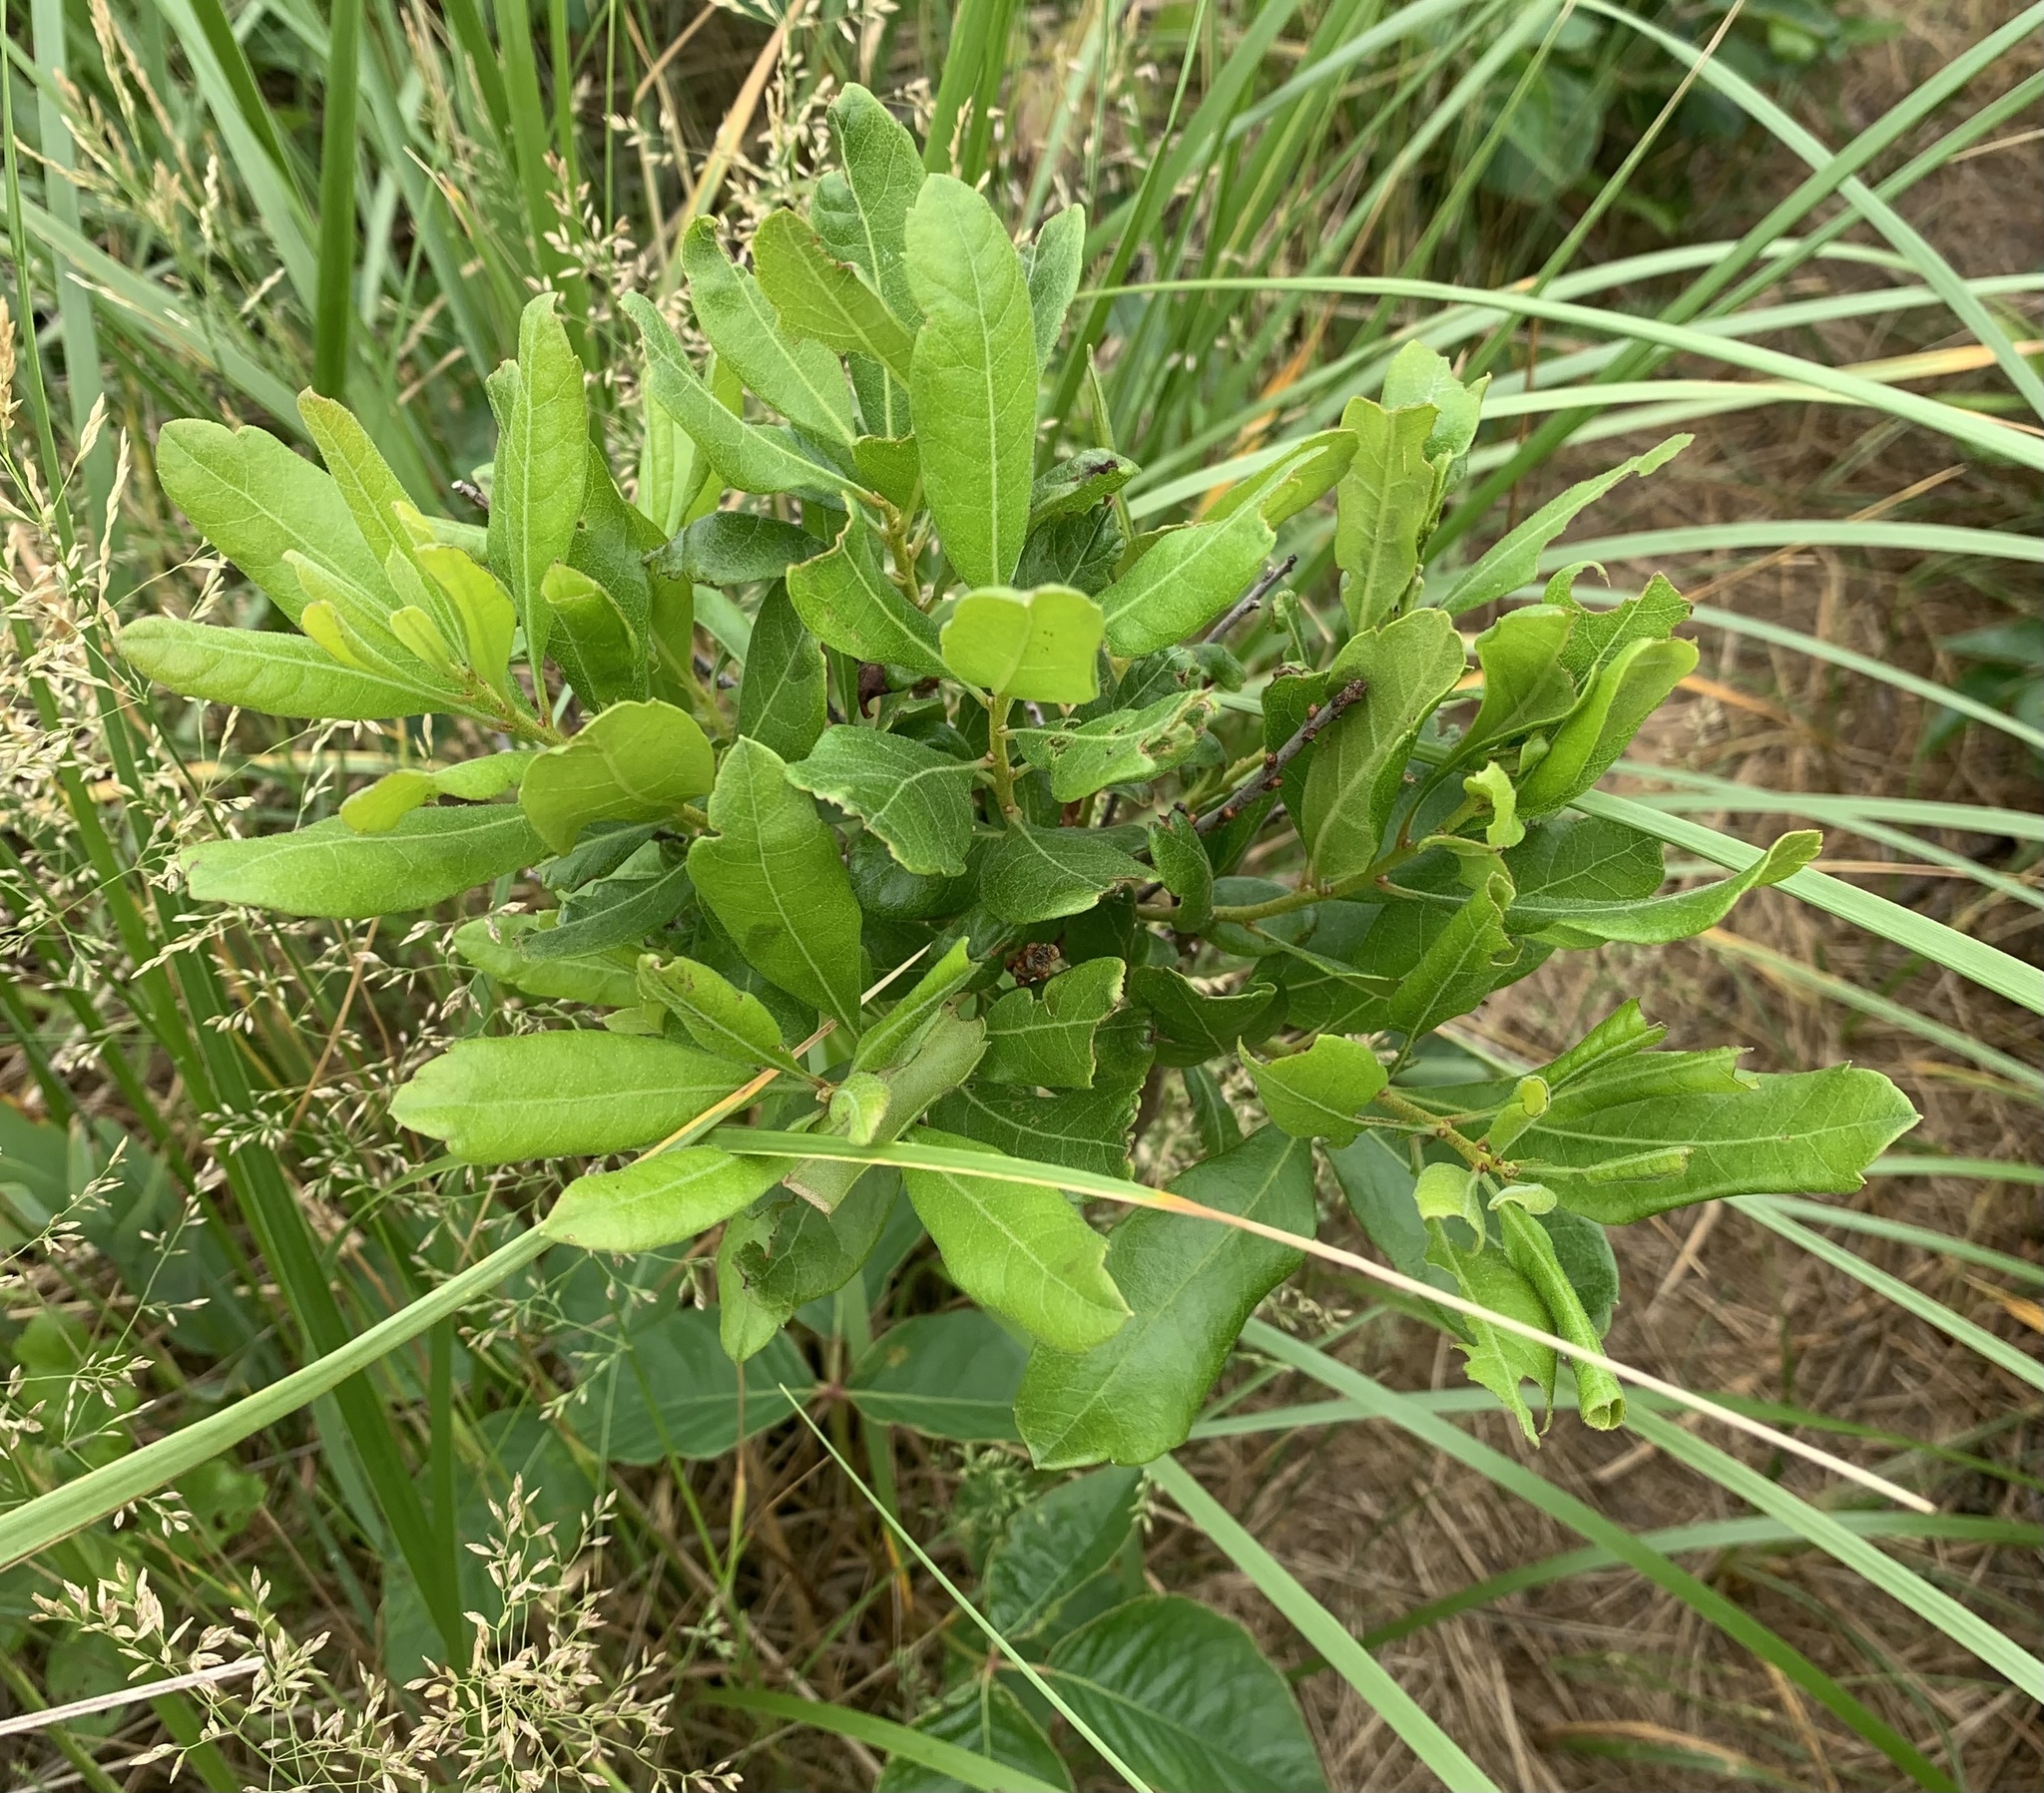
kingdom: Plantae
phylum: Tracheophyta
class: Magnoliopsida
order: Fagales
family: Myricaceae
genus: Morella
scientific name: Morella pensylvanica
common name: Northern bayberry
